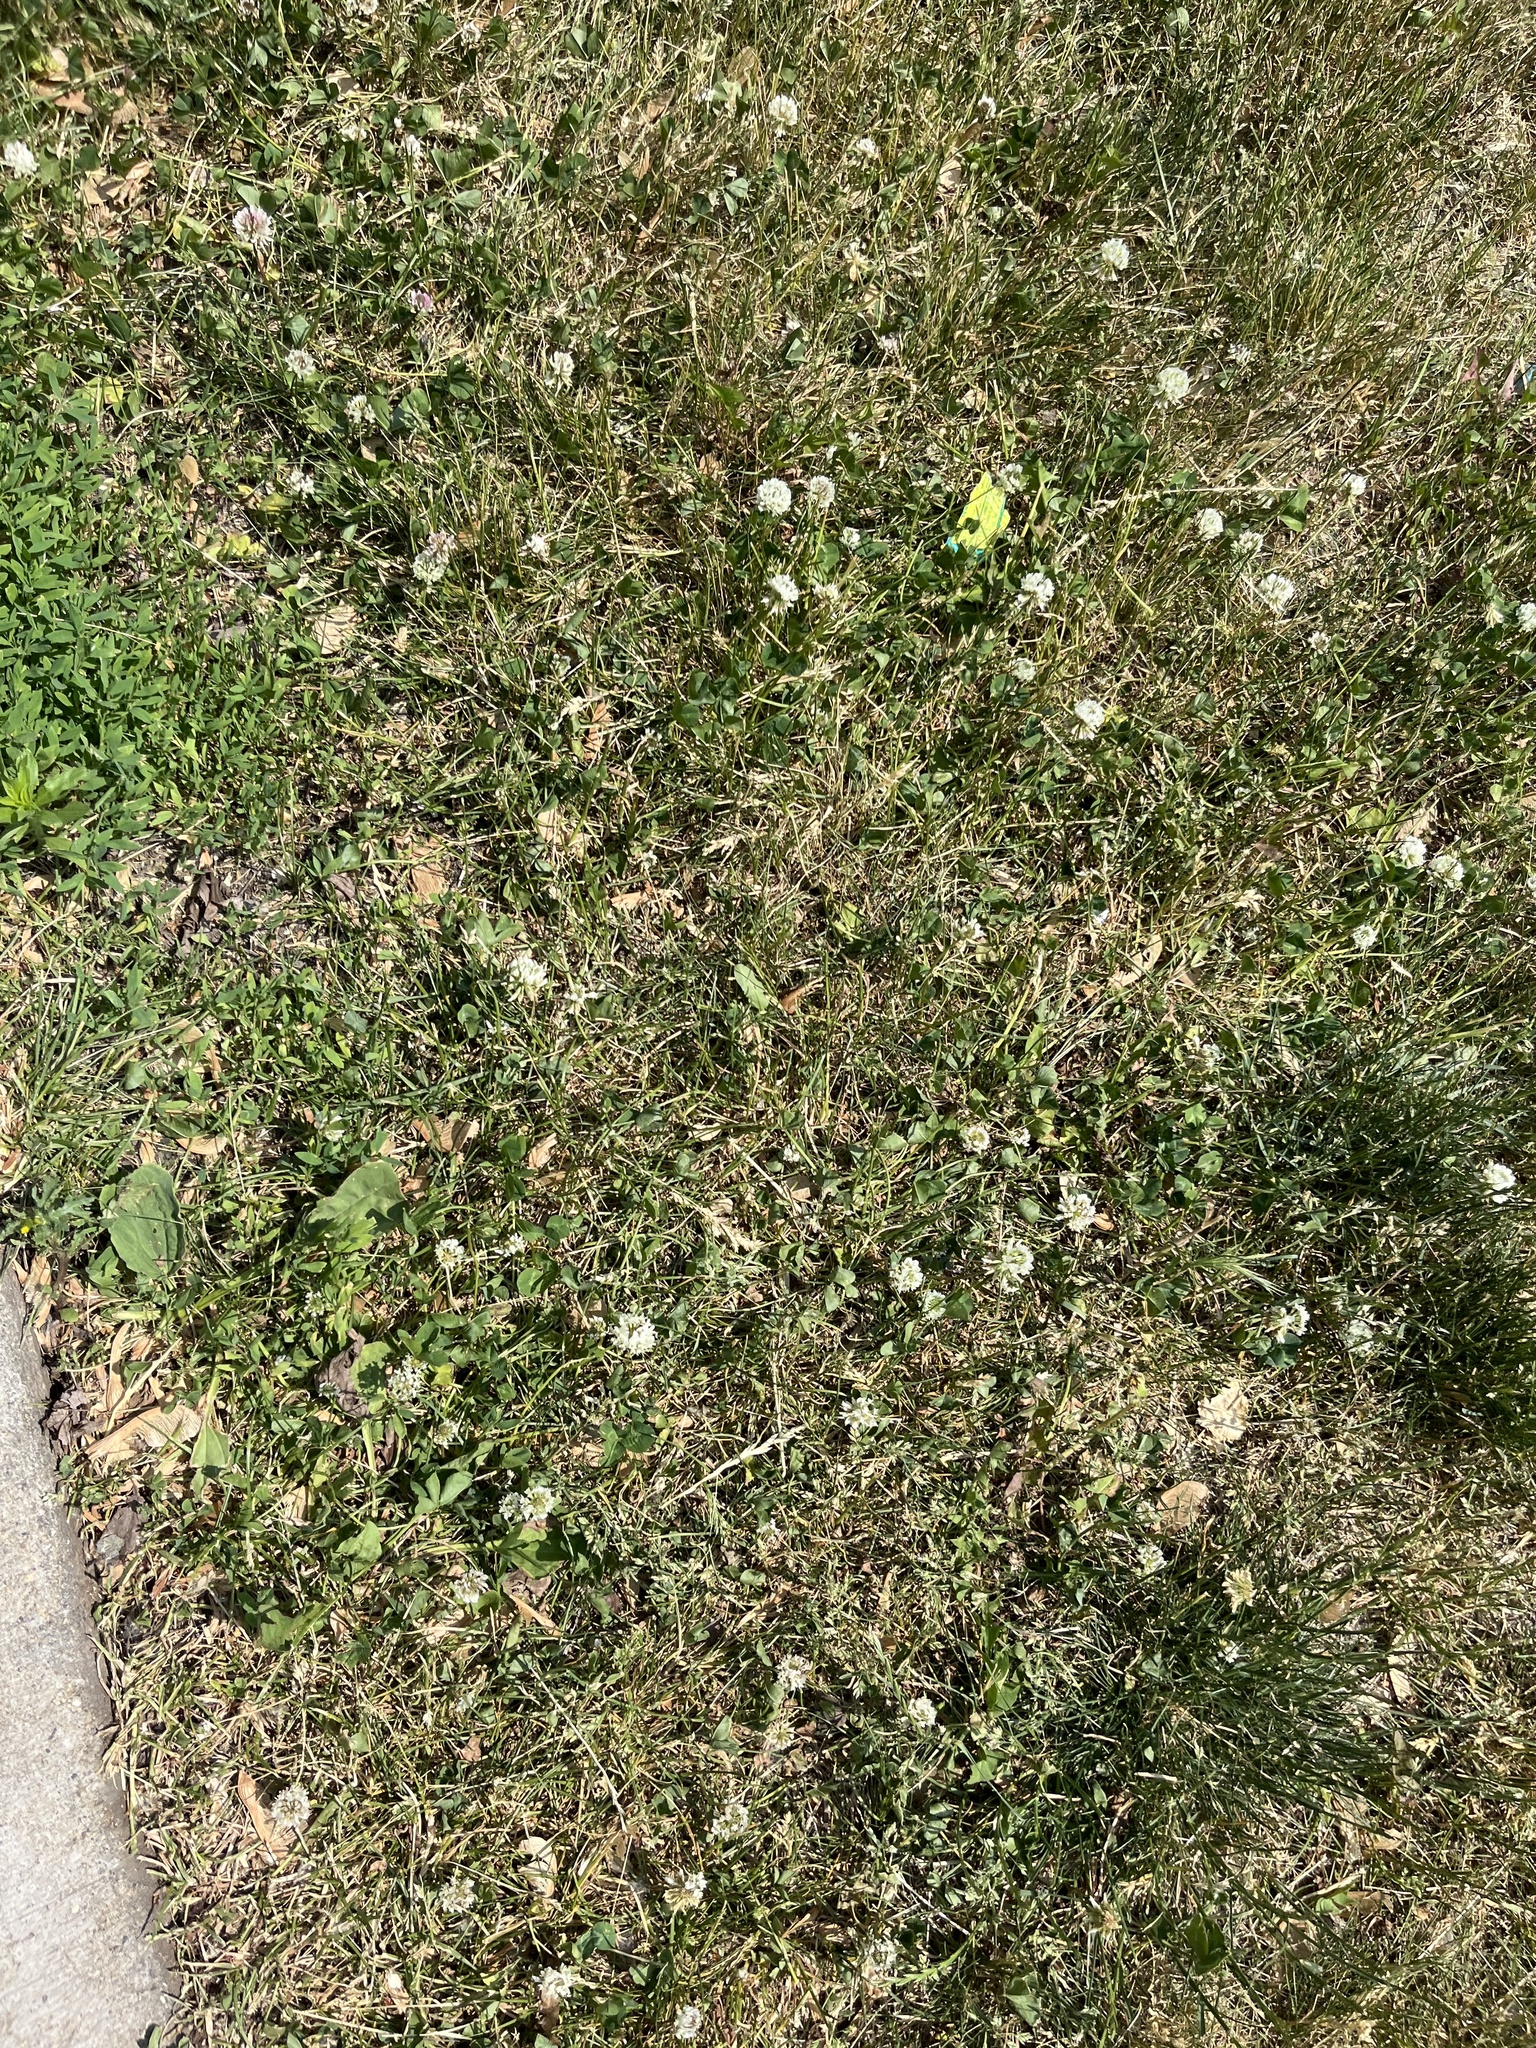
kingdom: Plantae
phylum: Tracheophyta
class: Magnoliopsida
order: Fabales
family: Fabaceae
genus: Trifolium
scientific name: Trifolium repens
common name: White clover
